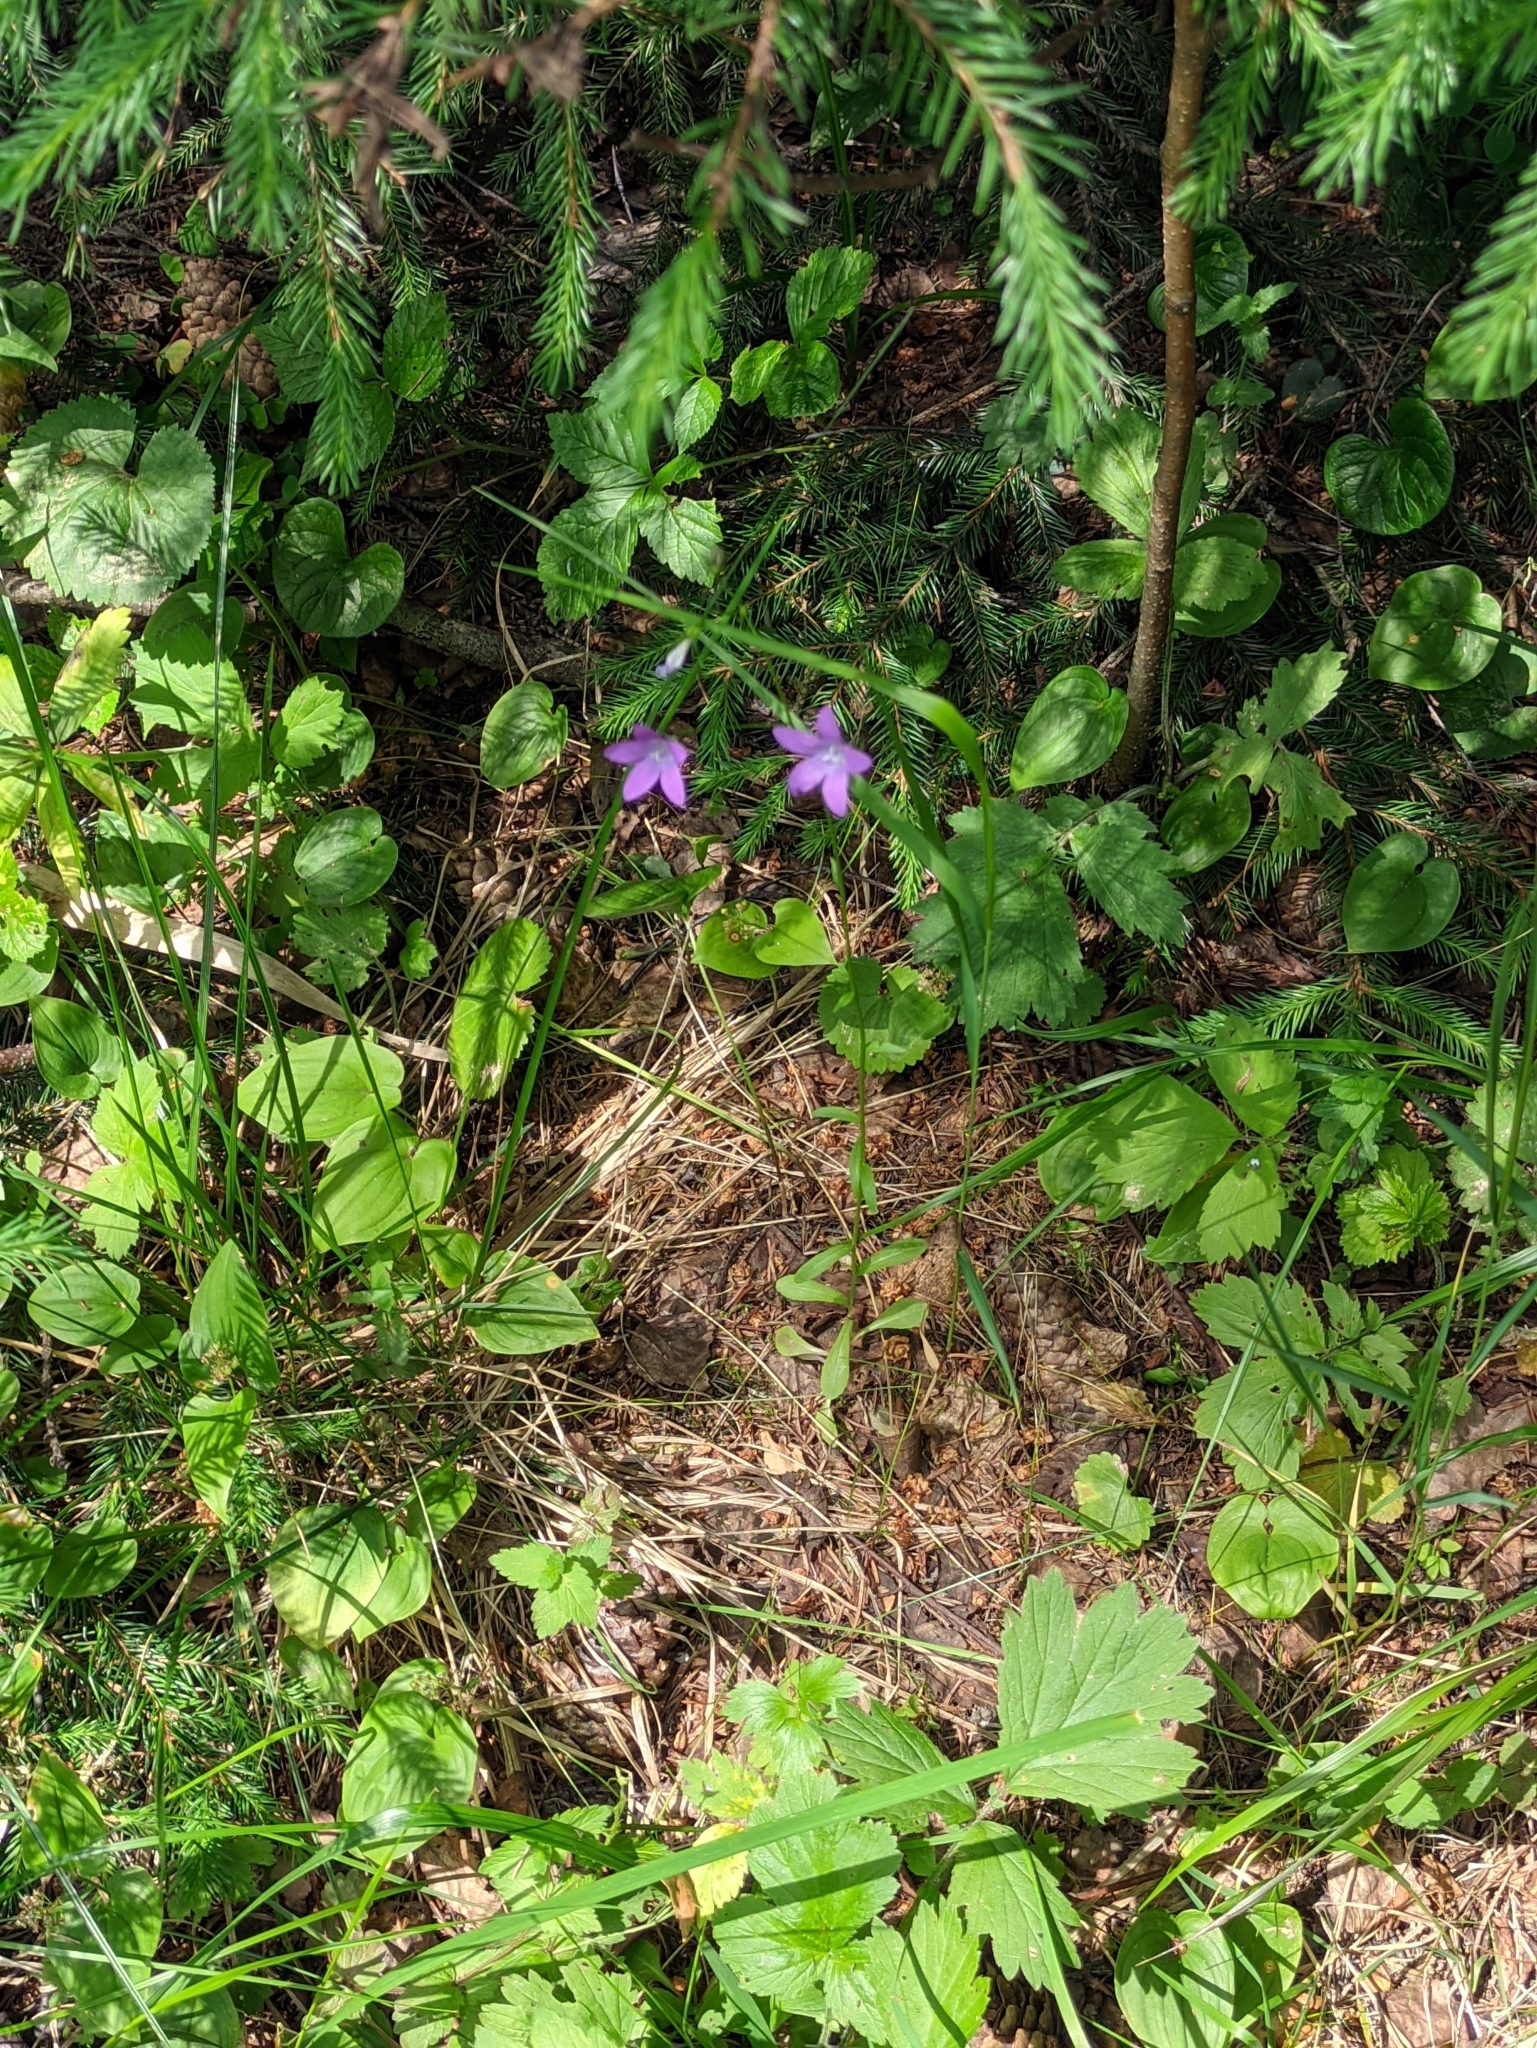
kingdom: Plantae
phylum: Tracheophyta
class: Magnoliopsida
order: Asterales
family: Campanulaceae
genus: Campanula
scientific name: Campanula patula
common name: Spreading bellflower
